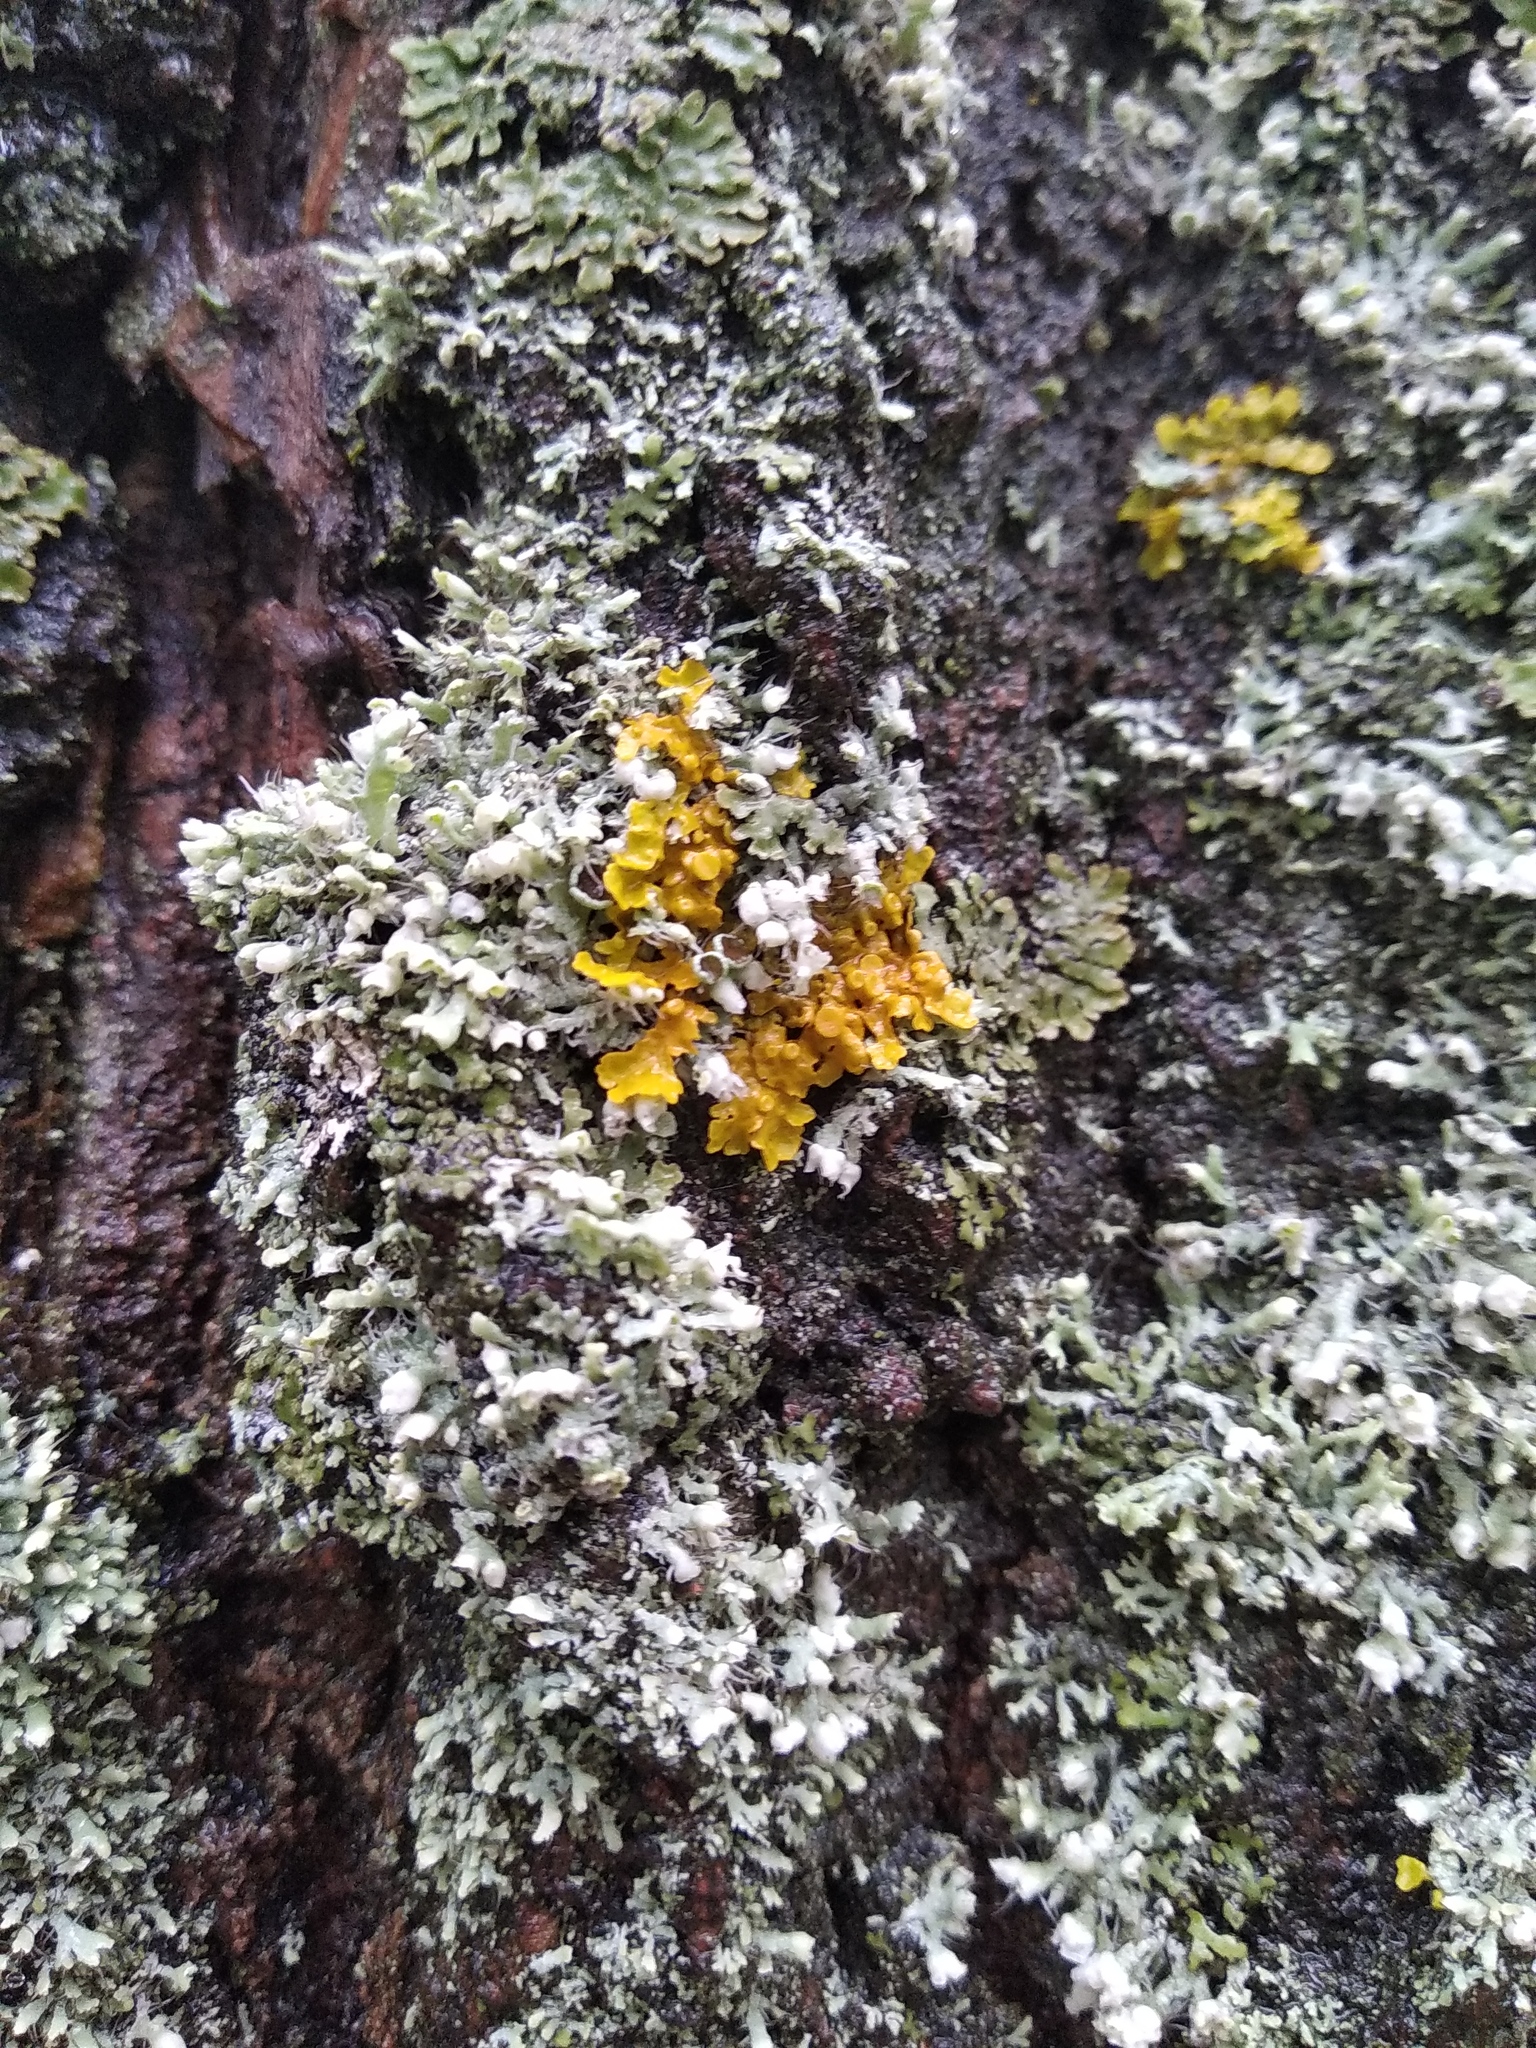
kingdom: Fungi
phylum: Ascomycota
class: Lecanoromycetes
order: Caliciales
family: Physciaceae
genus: Physcia
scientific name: Physcia adscendens
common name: Hooded rosette lichen
